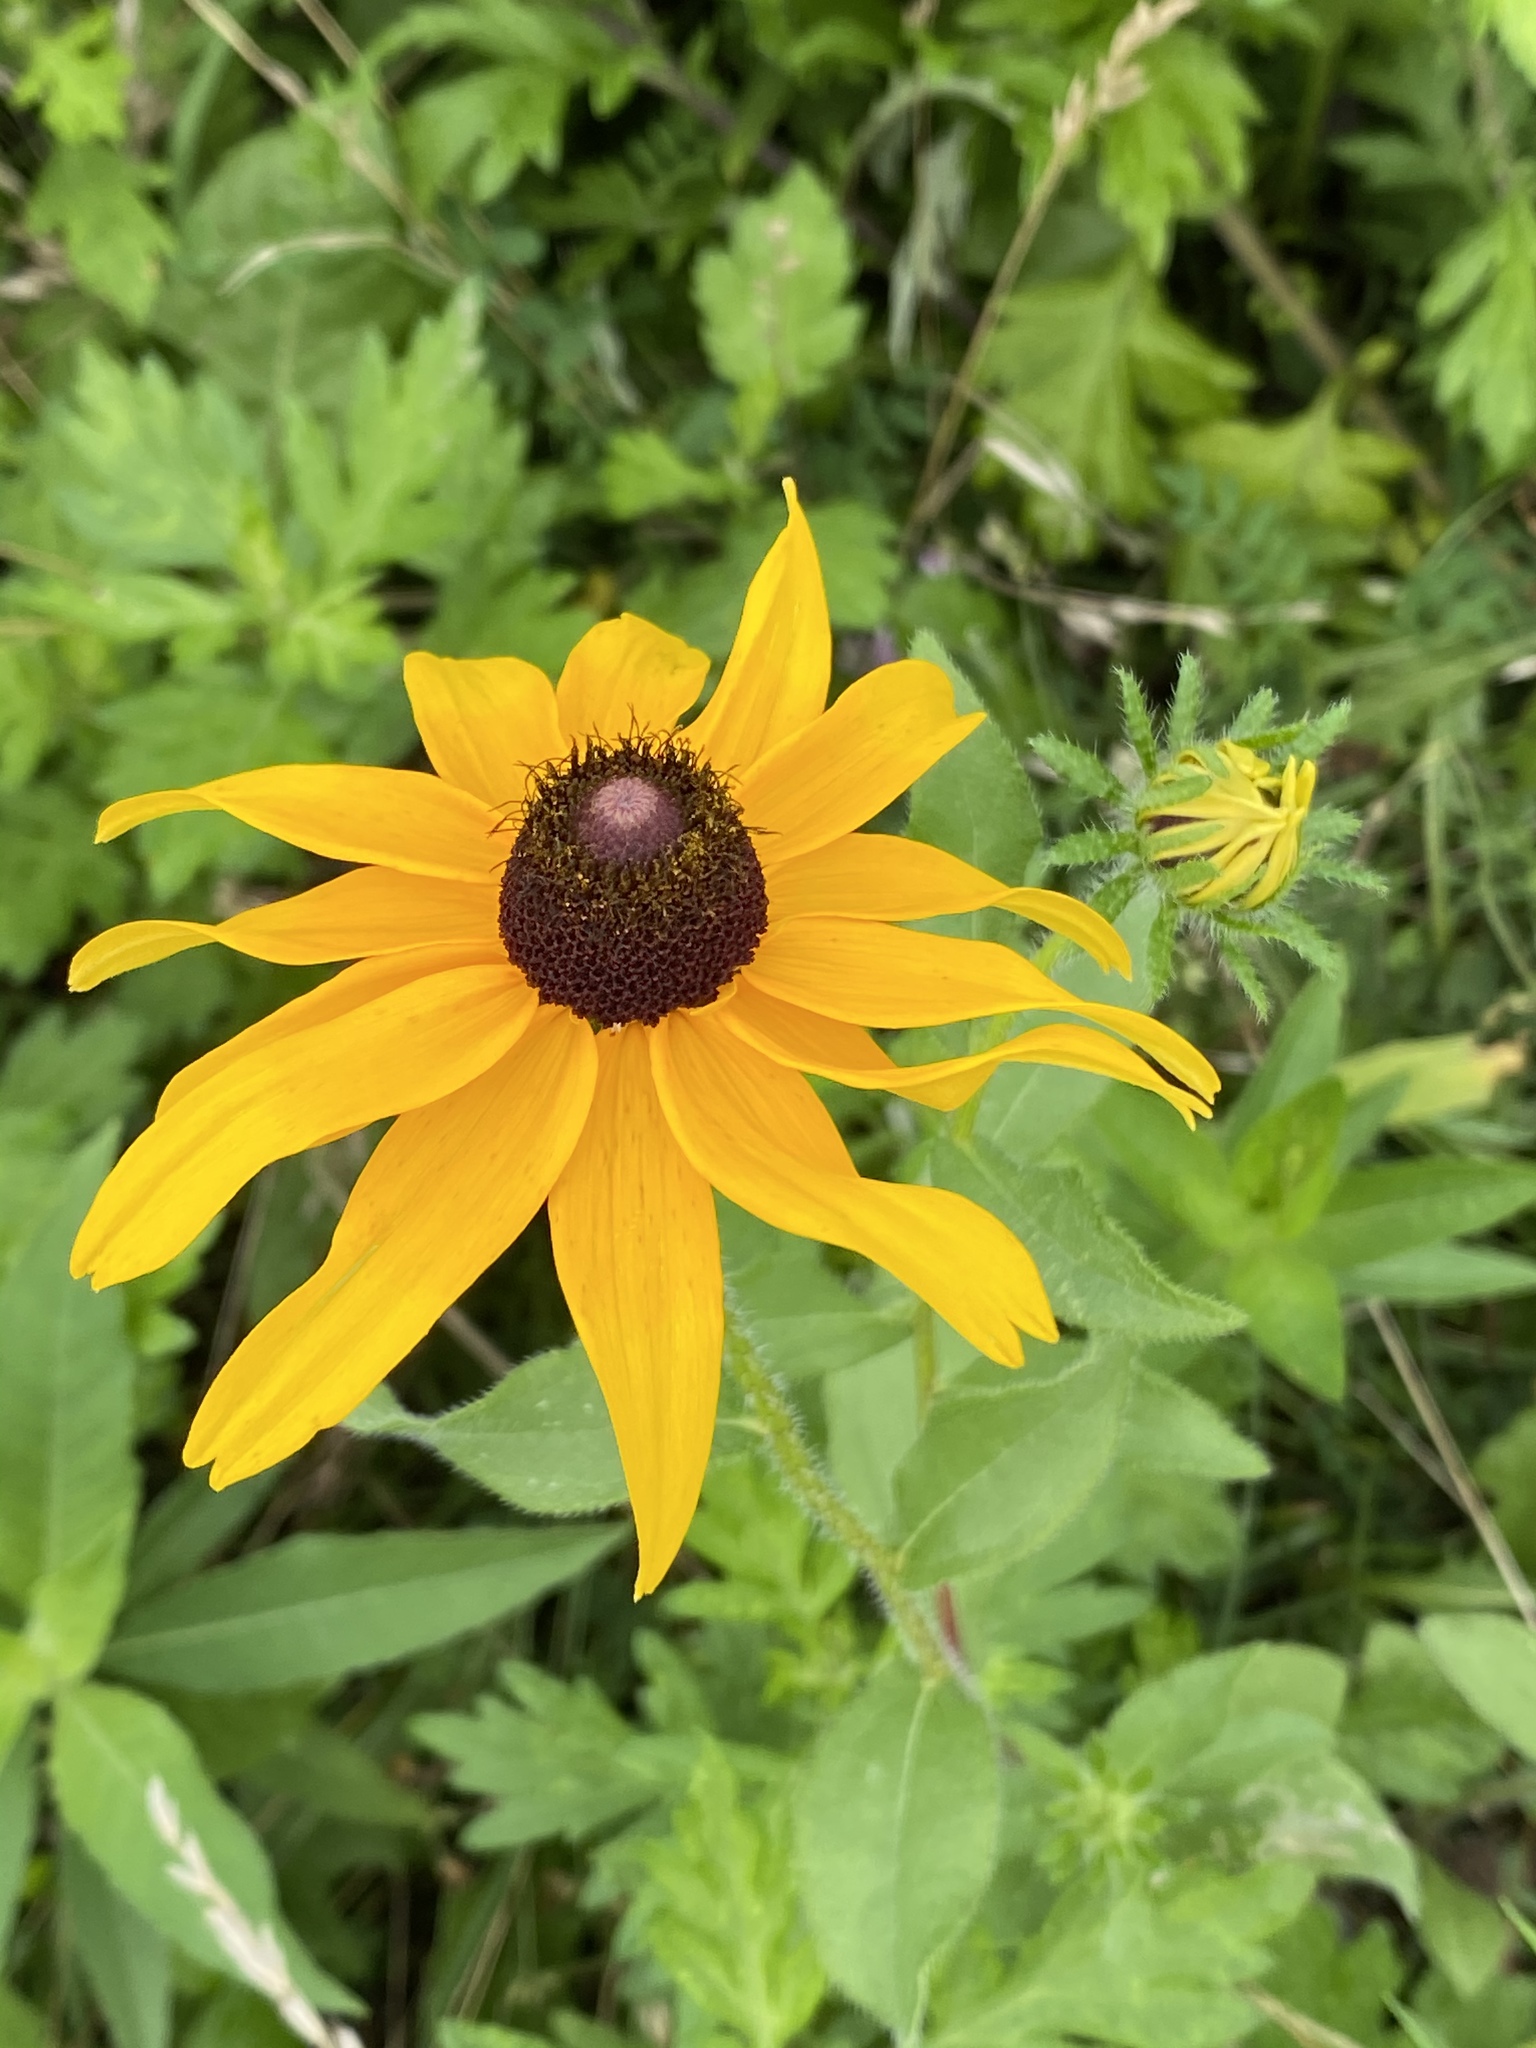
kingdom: Plantae
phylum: Tracheophyta
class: Magnoliopsida
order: Asterales
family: Asteraceae
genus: Rudbeckia
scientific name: Rudbeckia hirta
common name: Black-eyed-susan
